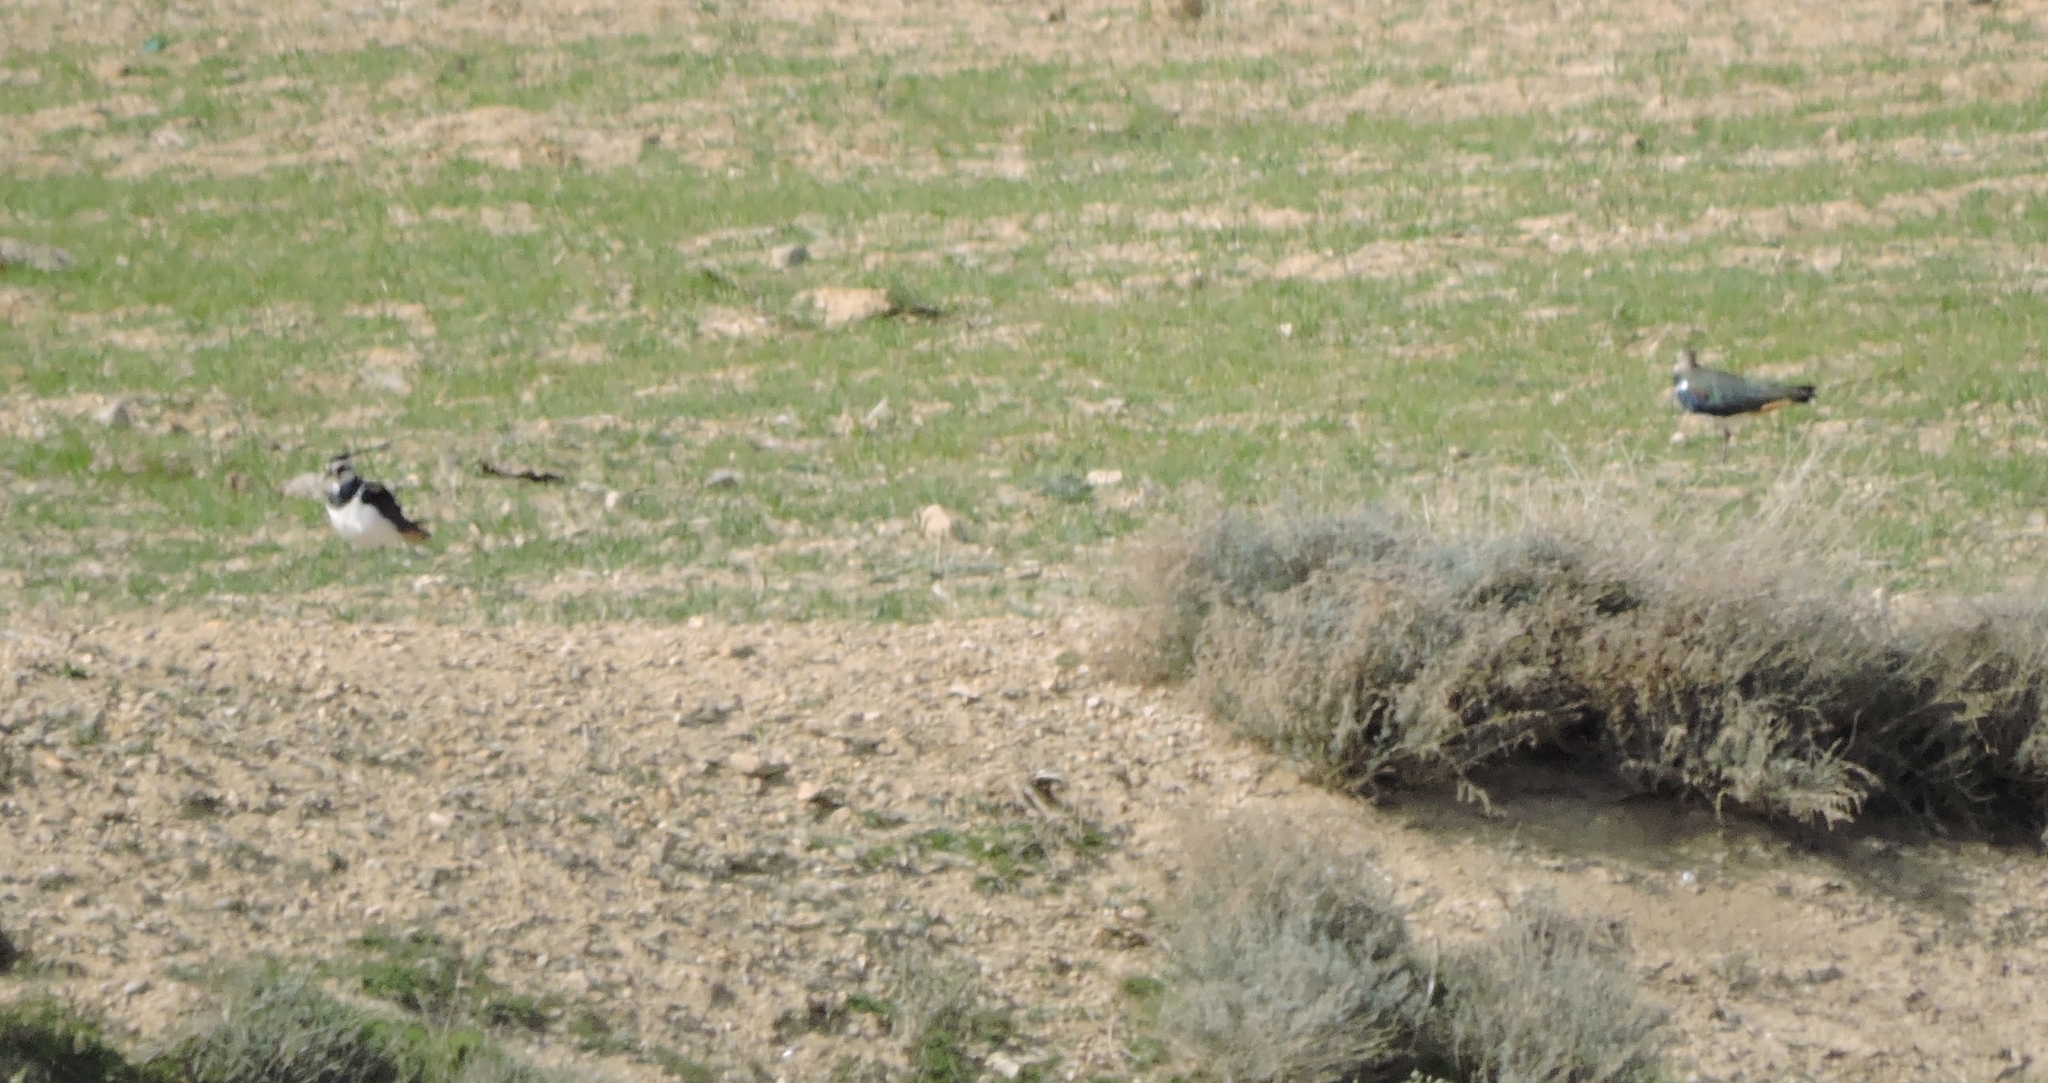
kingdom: Animalia
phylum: Chordata
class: Aves
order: Charadriiformes
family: Charadriidae
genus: Vanellus
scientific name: Vanellus vanellus
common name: Northern lapwing
